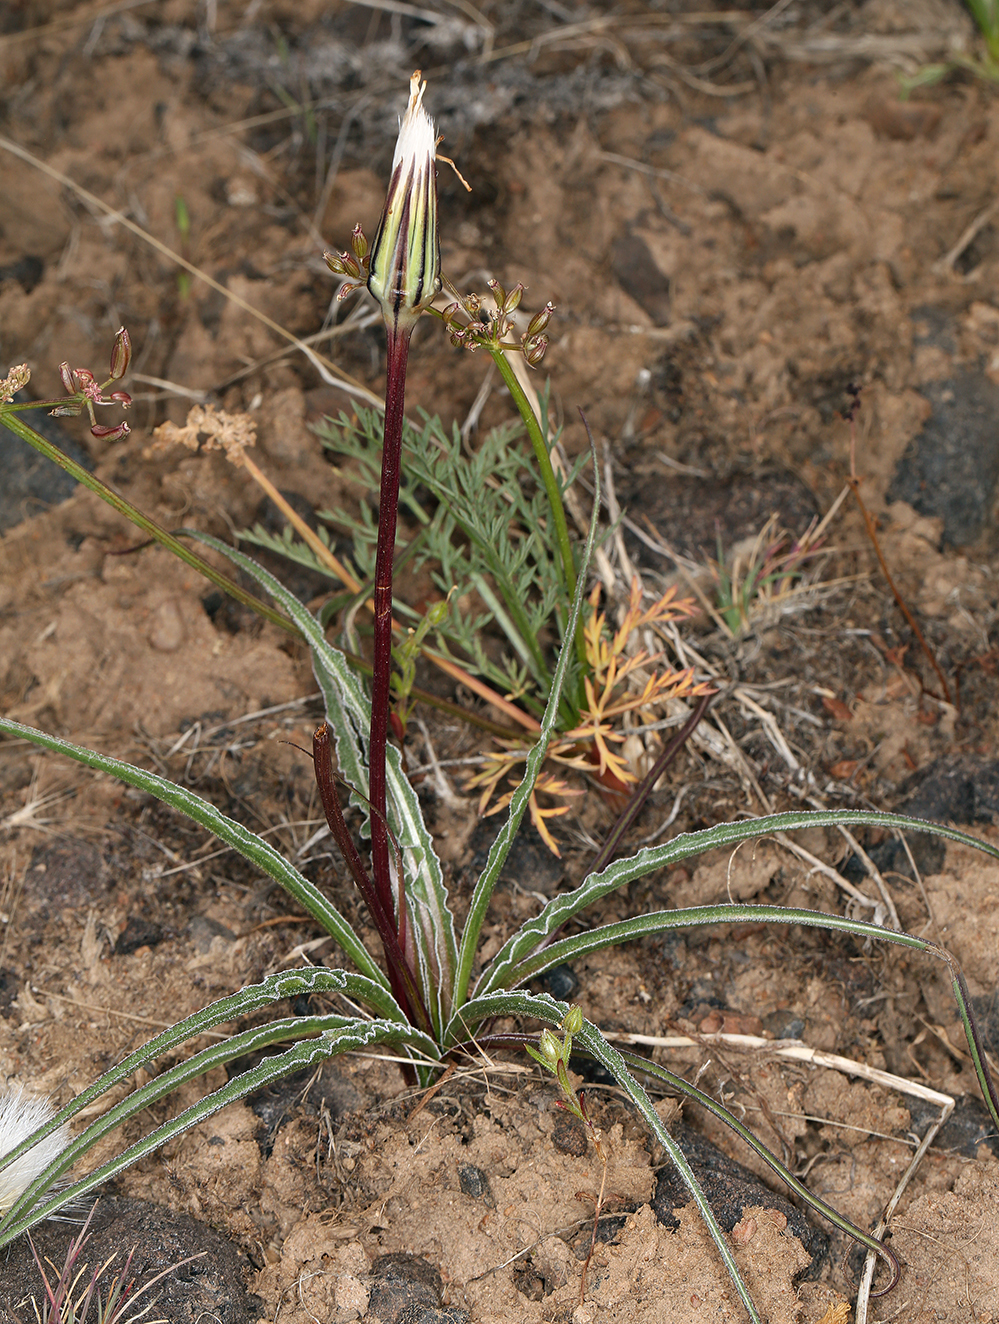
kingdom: Plantae
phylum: Tracheophyta
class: Magnoliopsida
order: Asterales
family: Asteraceae
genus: Microseris
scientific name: Microseris troximoides
